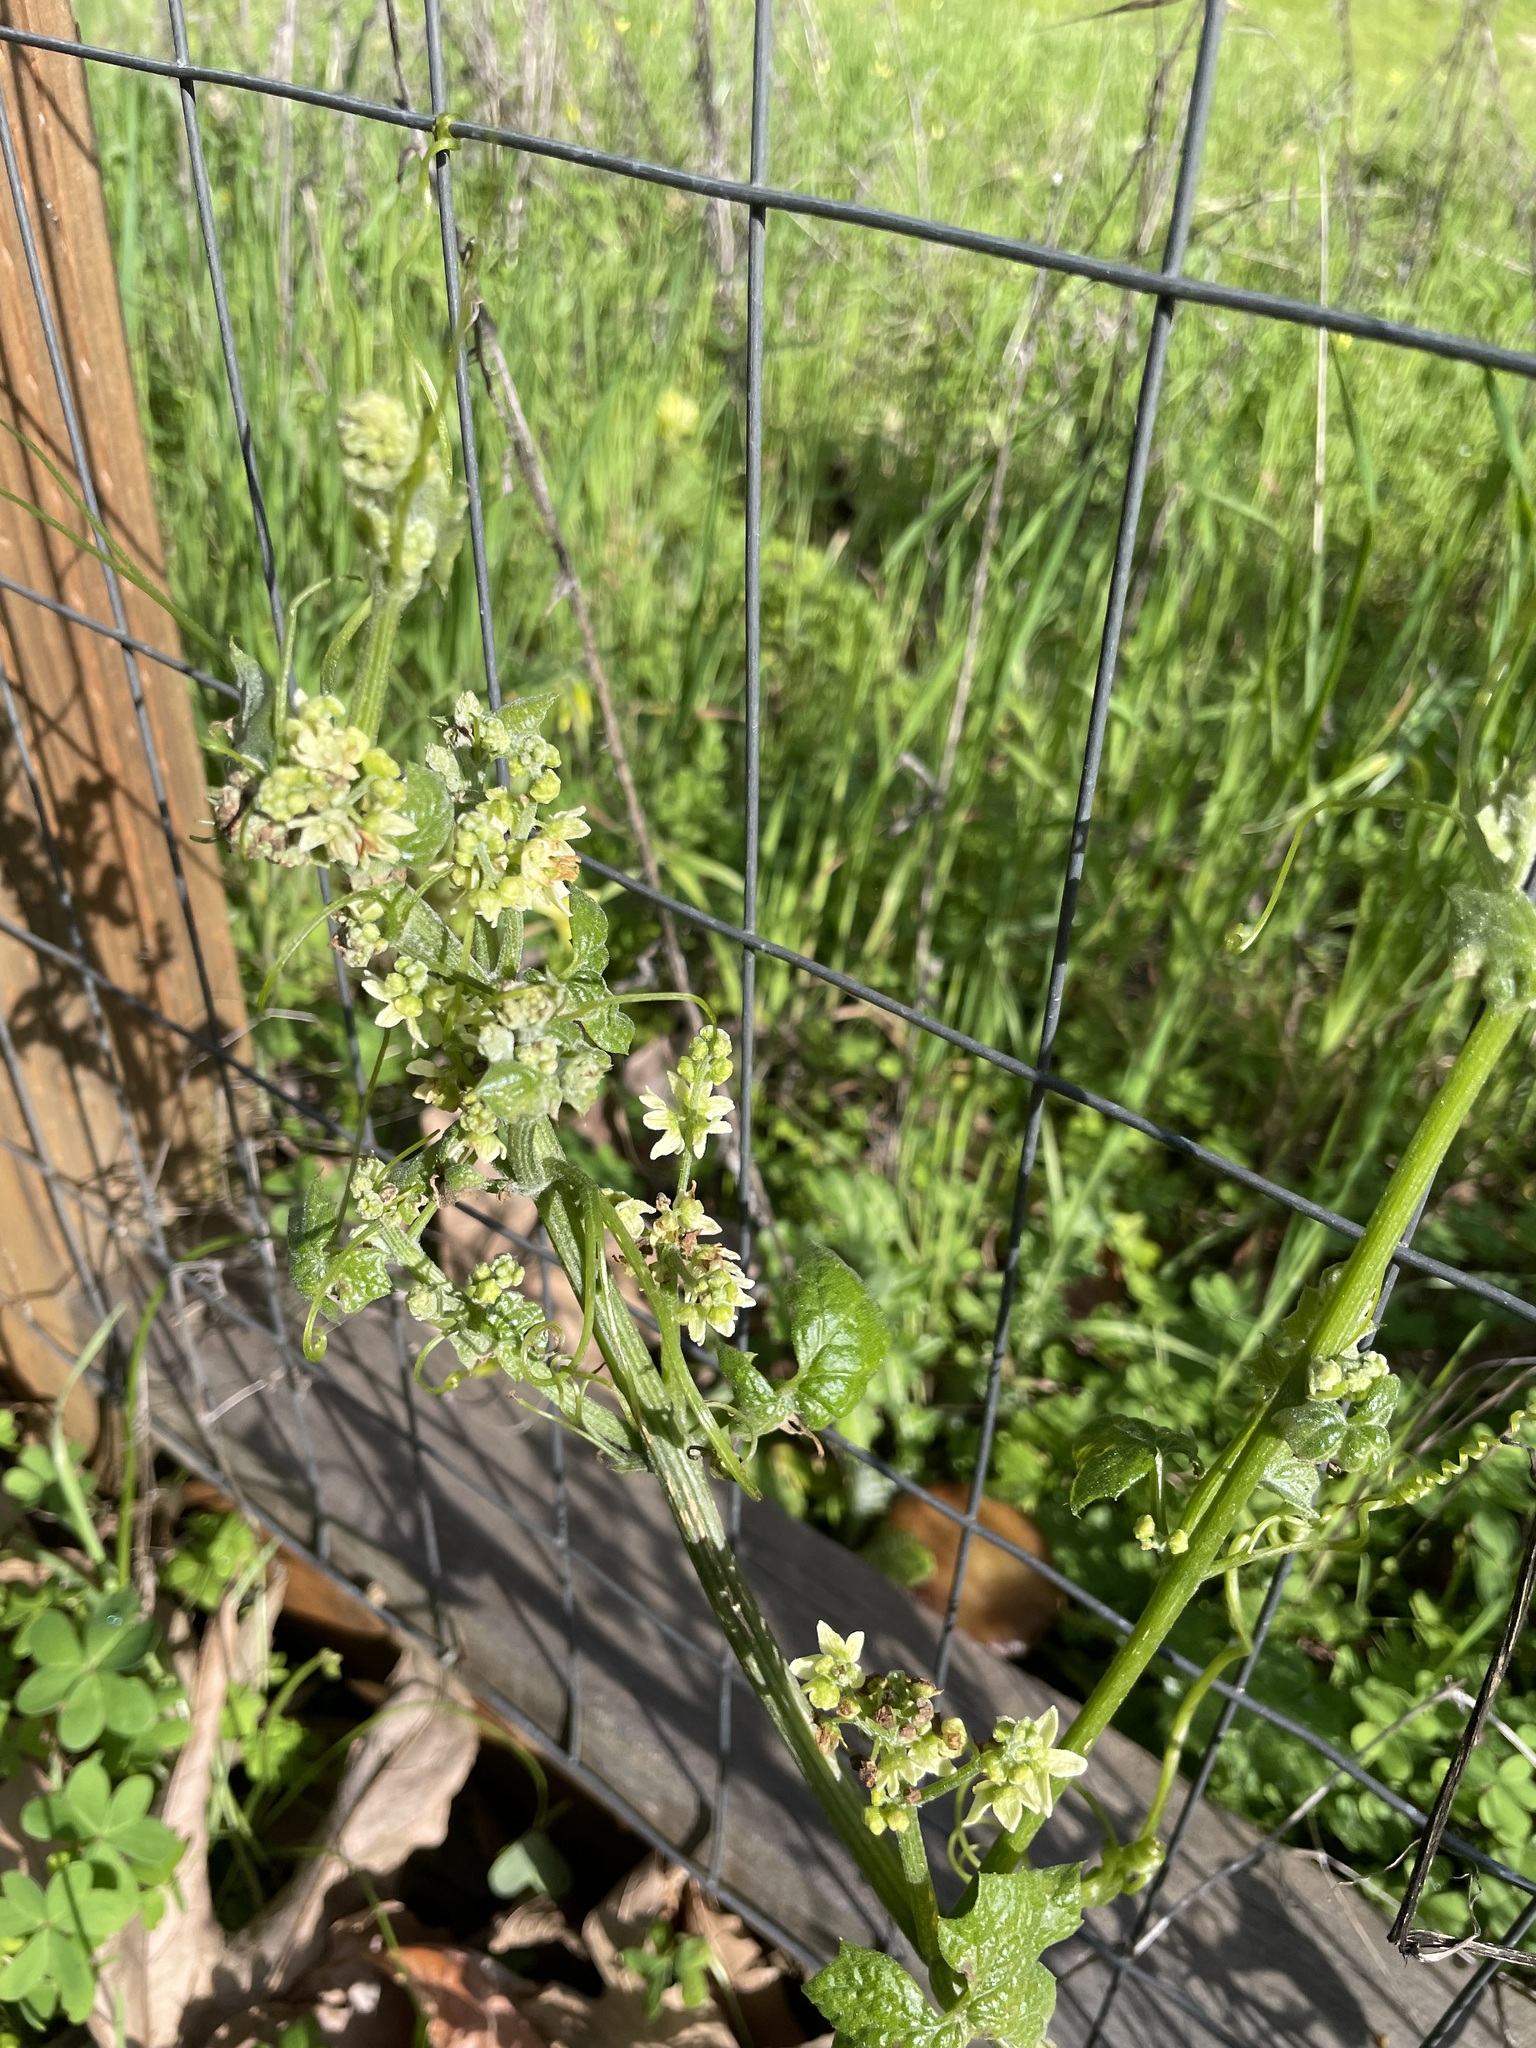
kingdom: Plantae
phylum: Tracheophyta
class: Magnoliopsida
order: Cucurbitales
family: Cucurbitaceae
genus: Marah
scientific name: Marah fabacea
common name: California manroot
